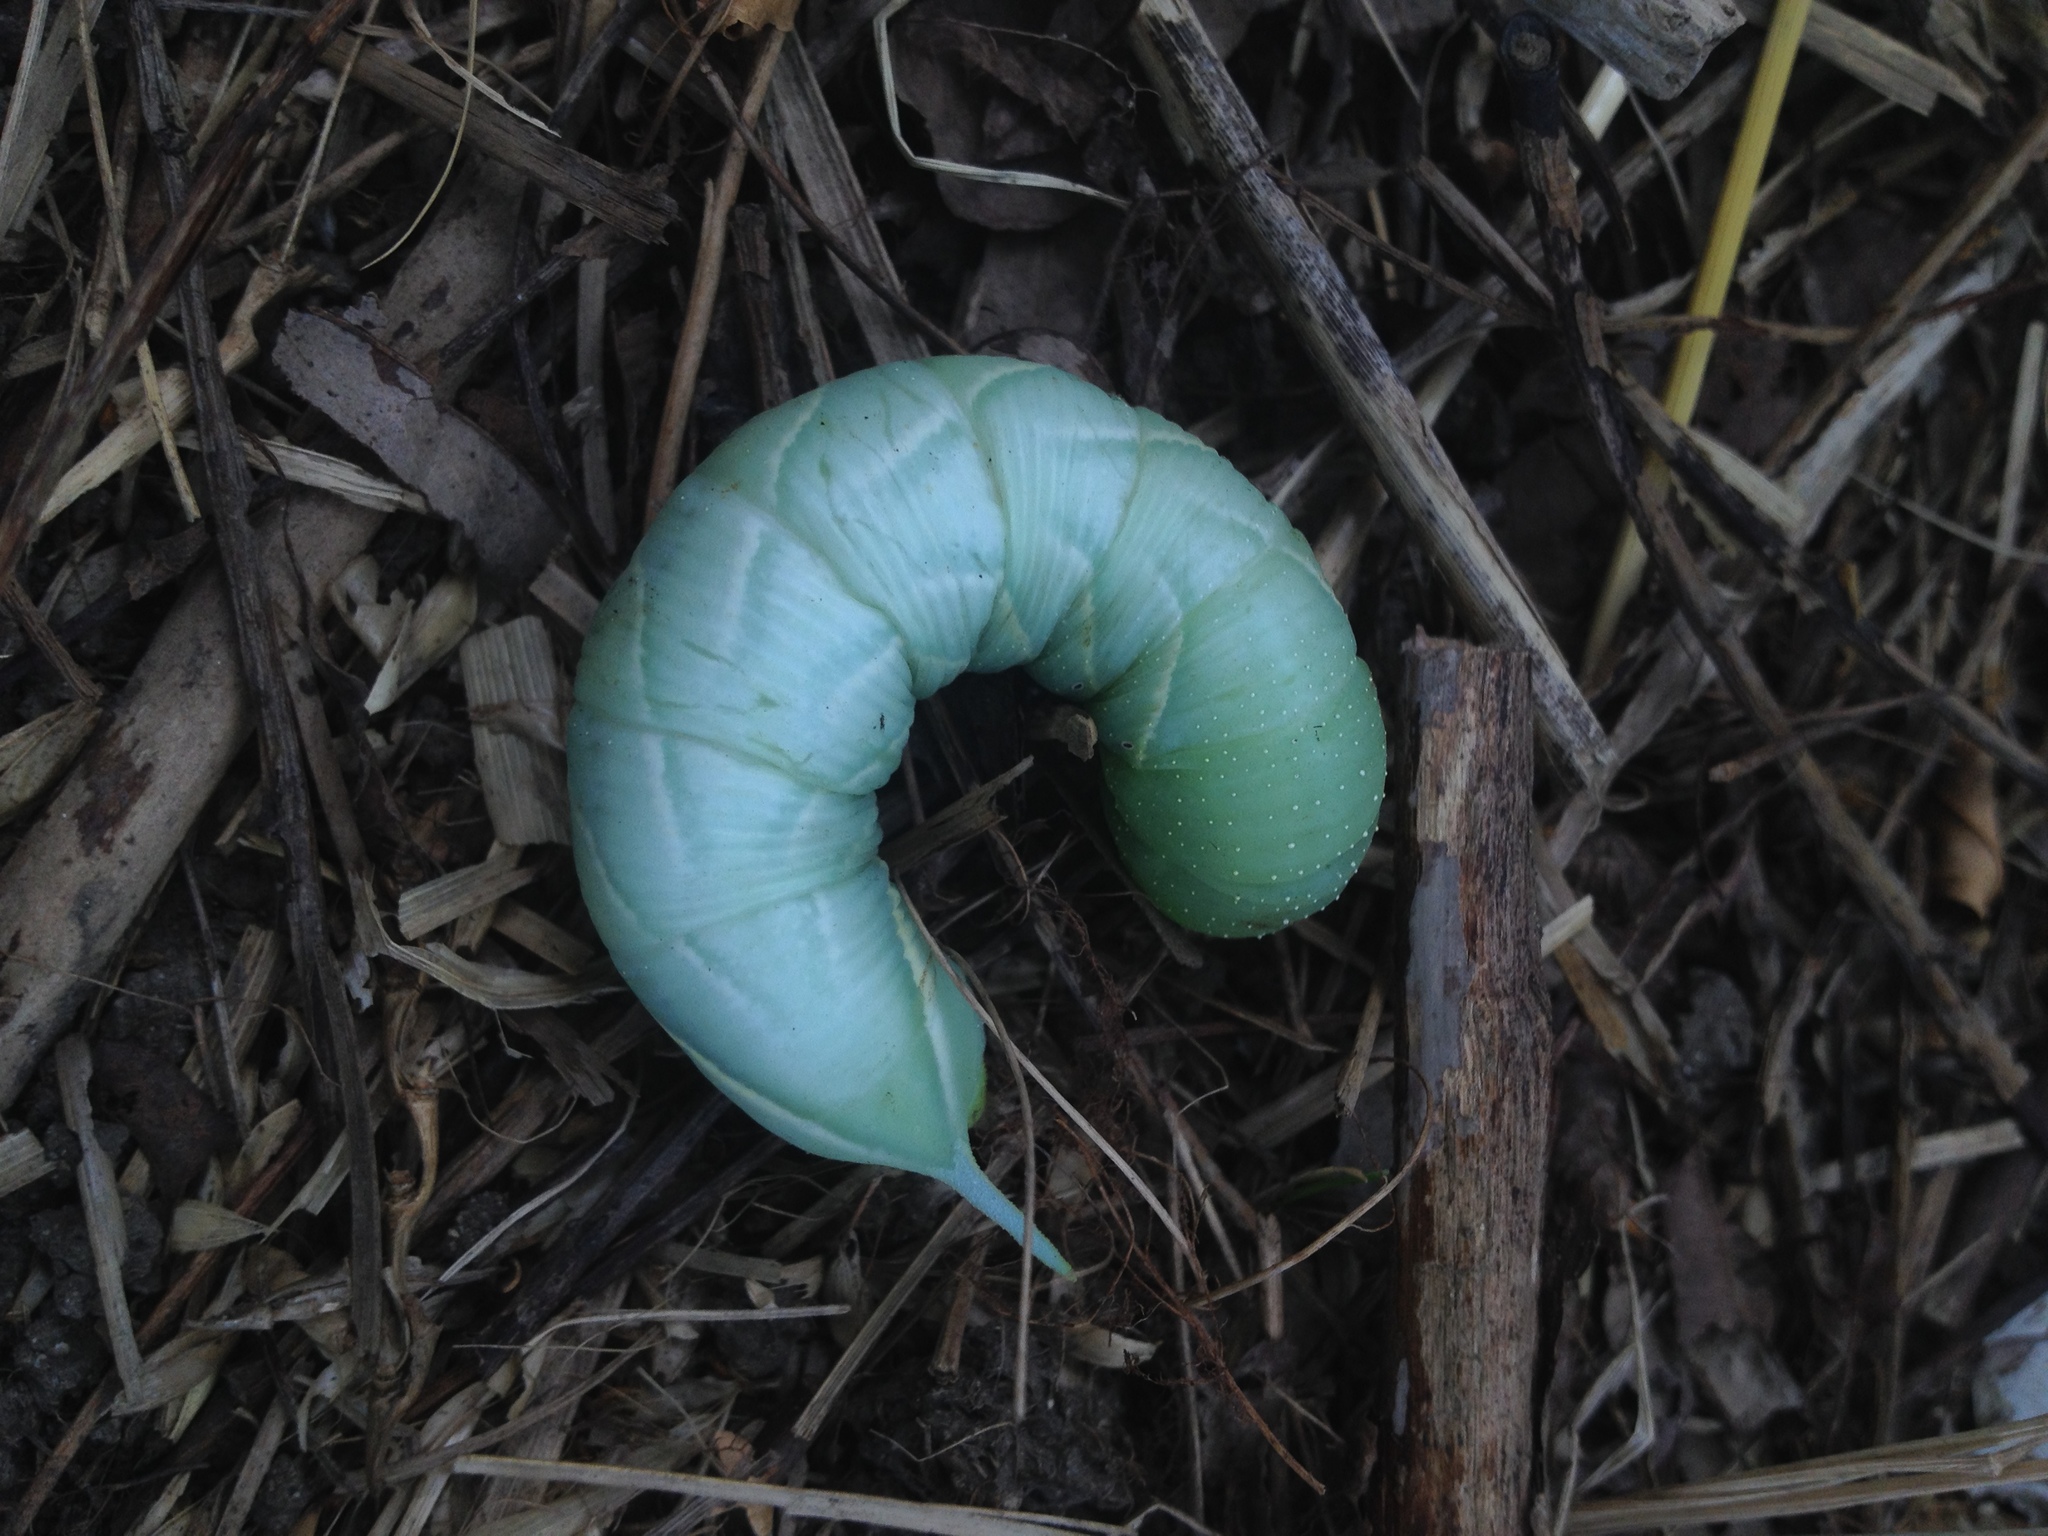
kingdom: Animalia
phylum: Arthropoda
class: Insecta
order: Lepidoptera
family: Sphingidae
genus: Sphinx
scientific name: Sphinx chersis
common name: Great ash sphinx
